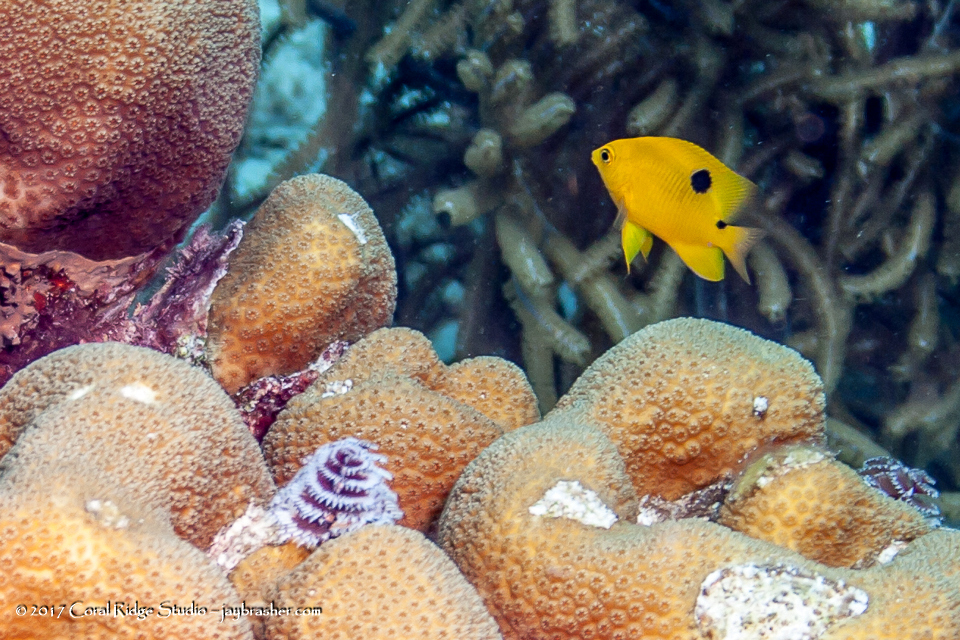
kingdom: Animalia
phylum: Chordata
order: Perciformes
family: Pomacentridae
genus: Stegastes
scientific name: Stegastes planifrons
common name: Threespot damselfish
